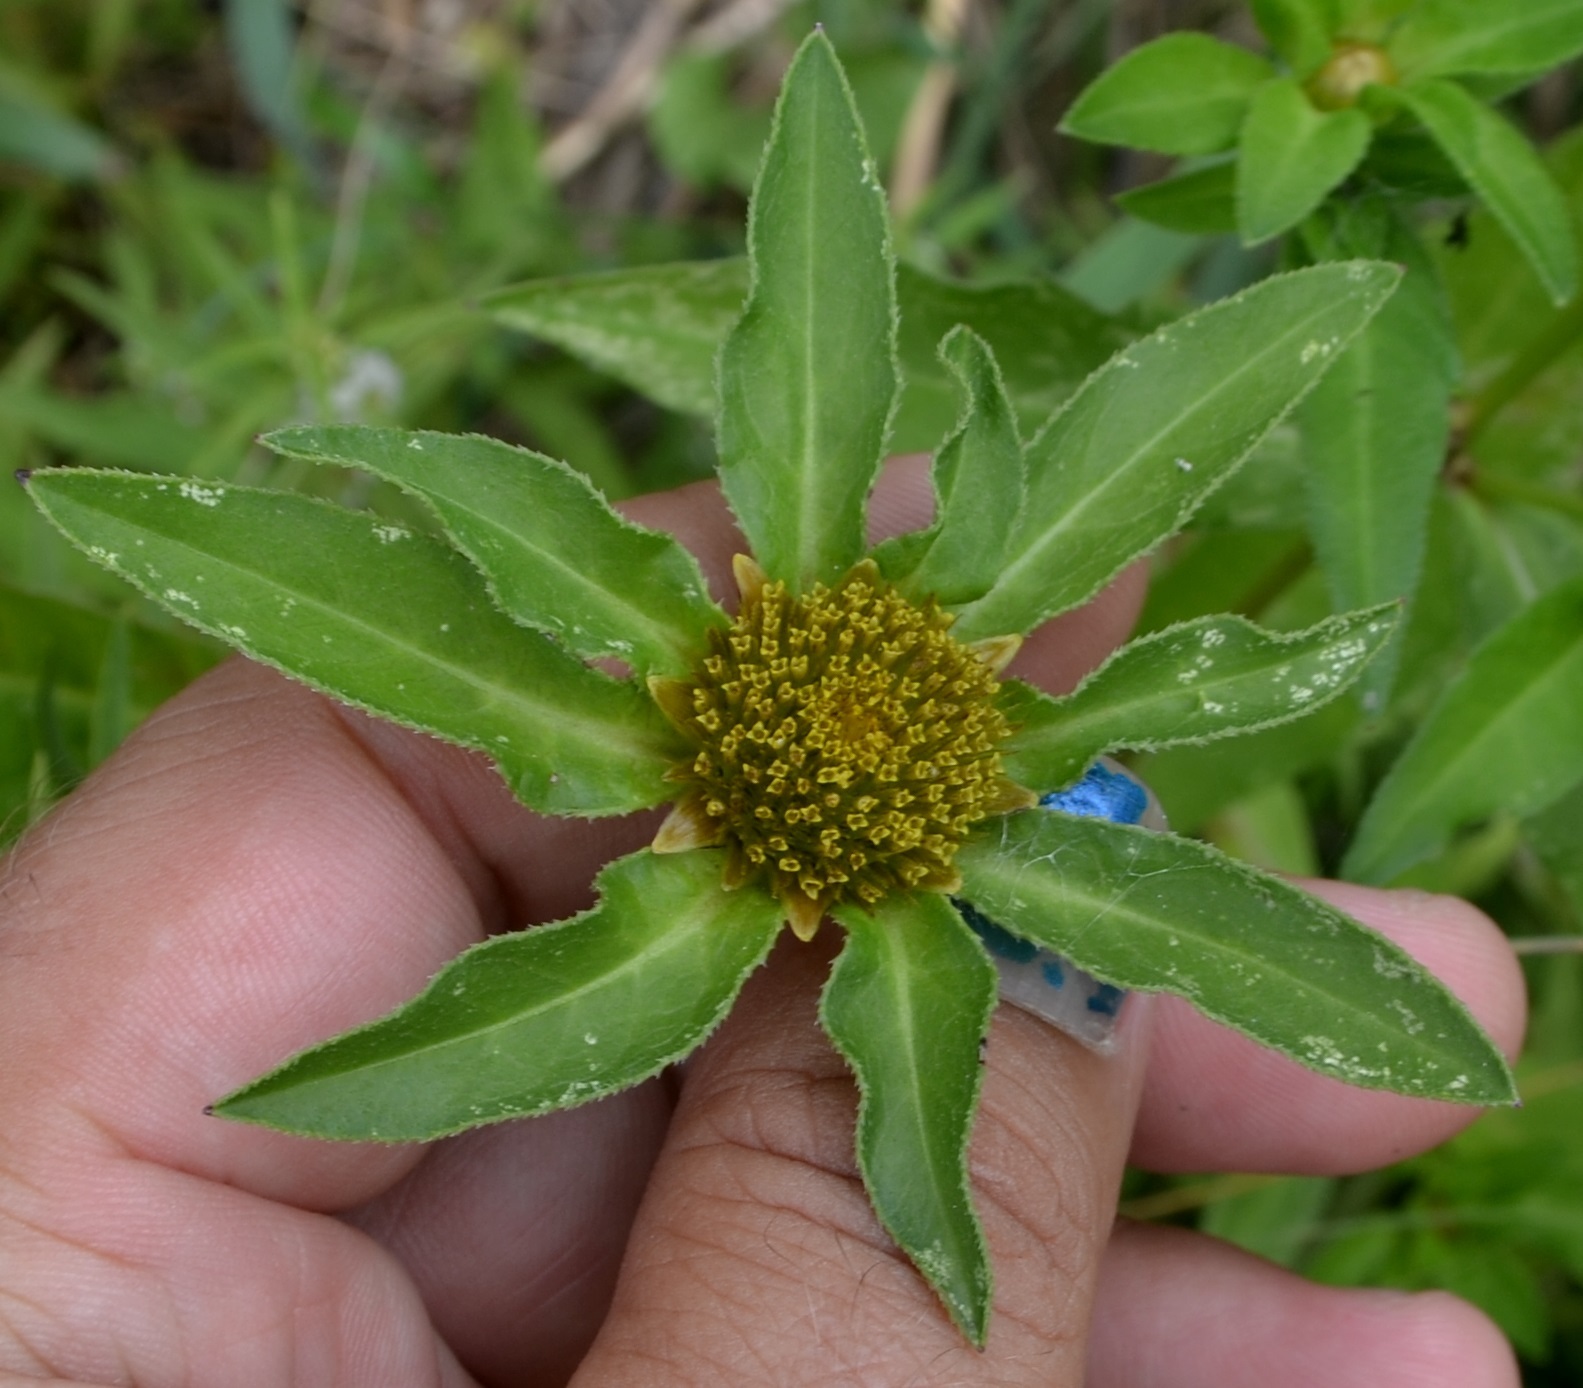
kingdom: Plantae
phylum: Tracheophyta
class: Magnoliopsida
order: Asterales
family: Asteraceae
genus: Bidens
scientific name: Bidens tripartita
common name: Trifid bur-marigold
